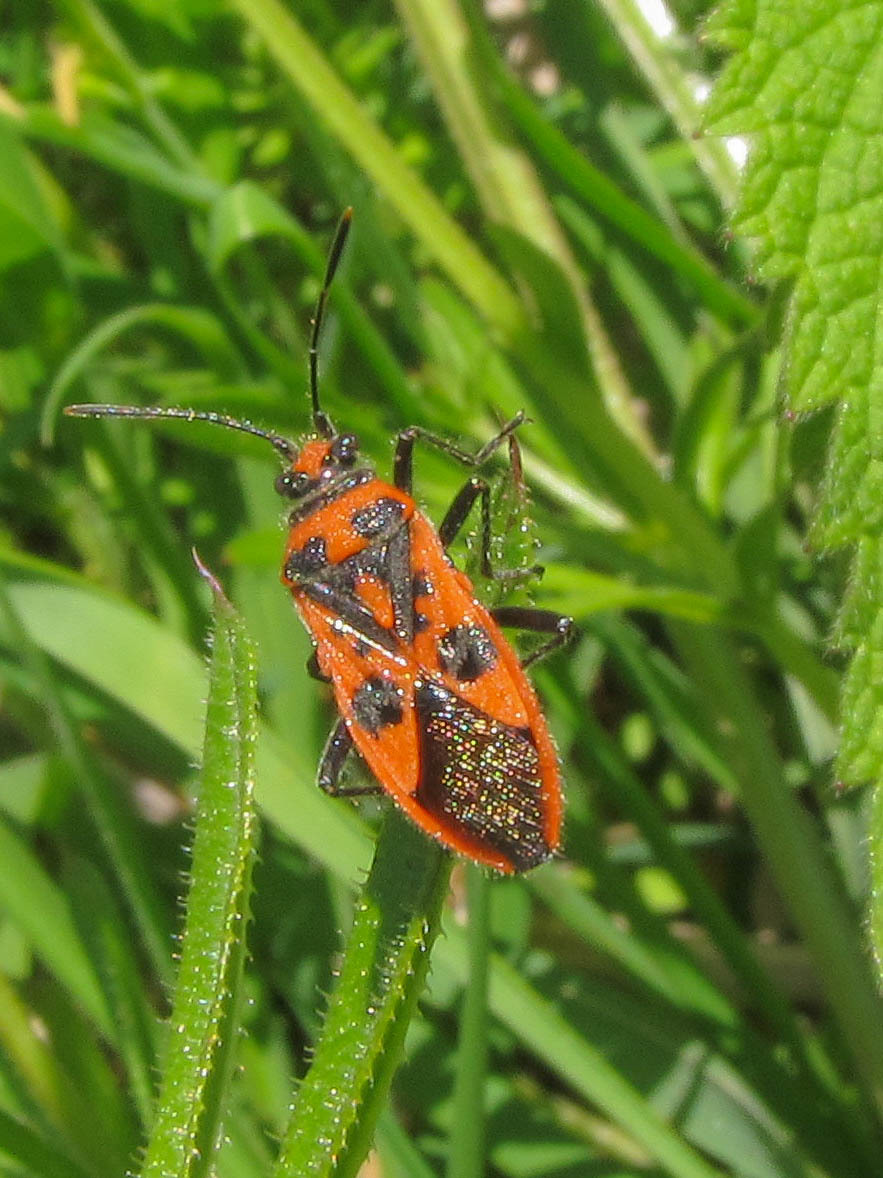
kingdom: Animalia
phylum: Arthropoda
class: Insecta
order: Hemiptera
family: Rhopalidae
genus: Corizus
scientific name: Corizus hyoscyami
